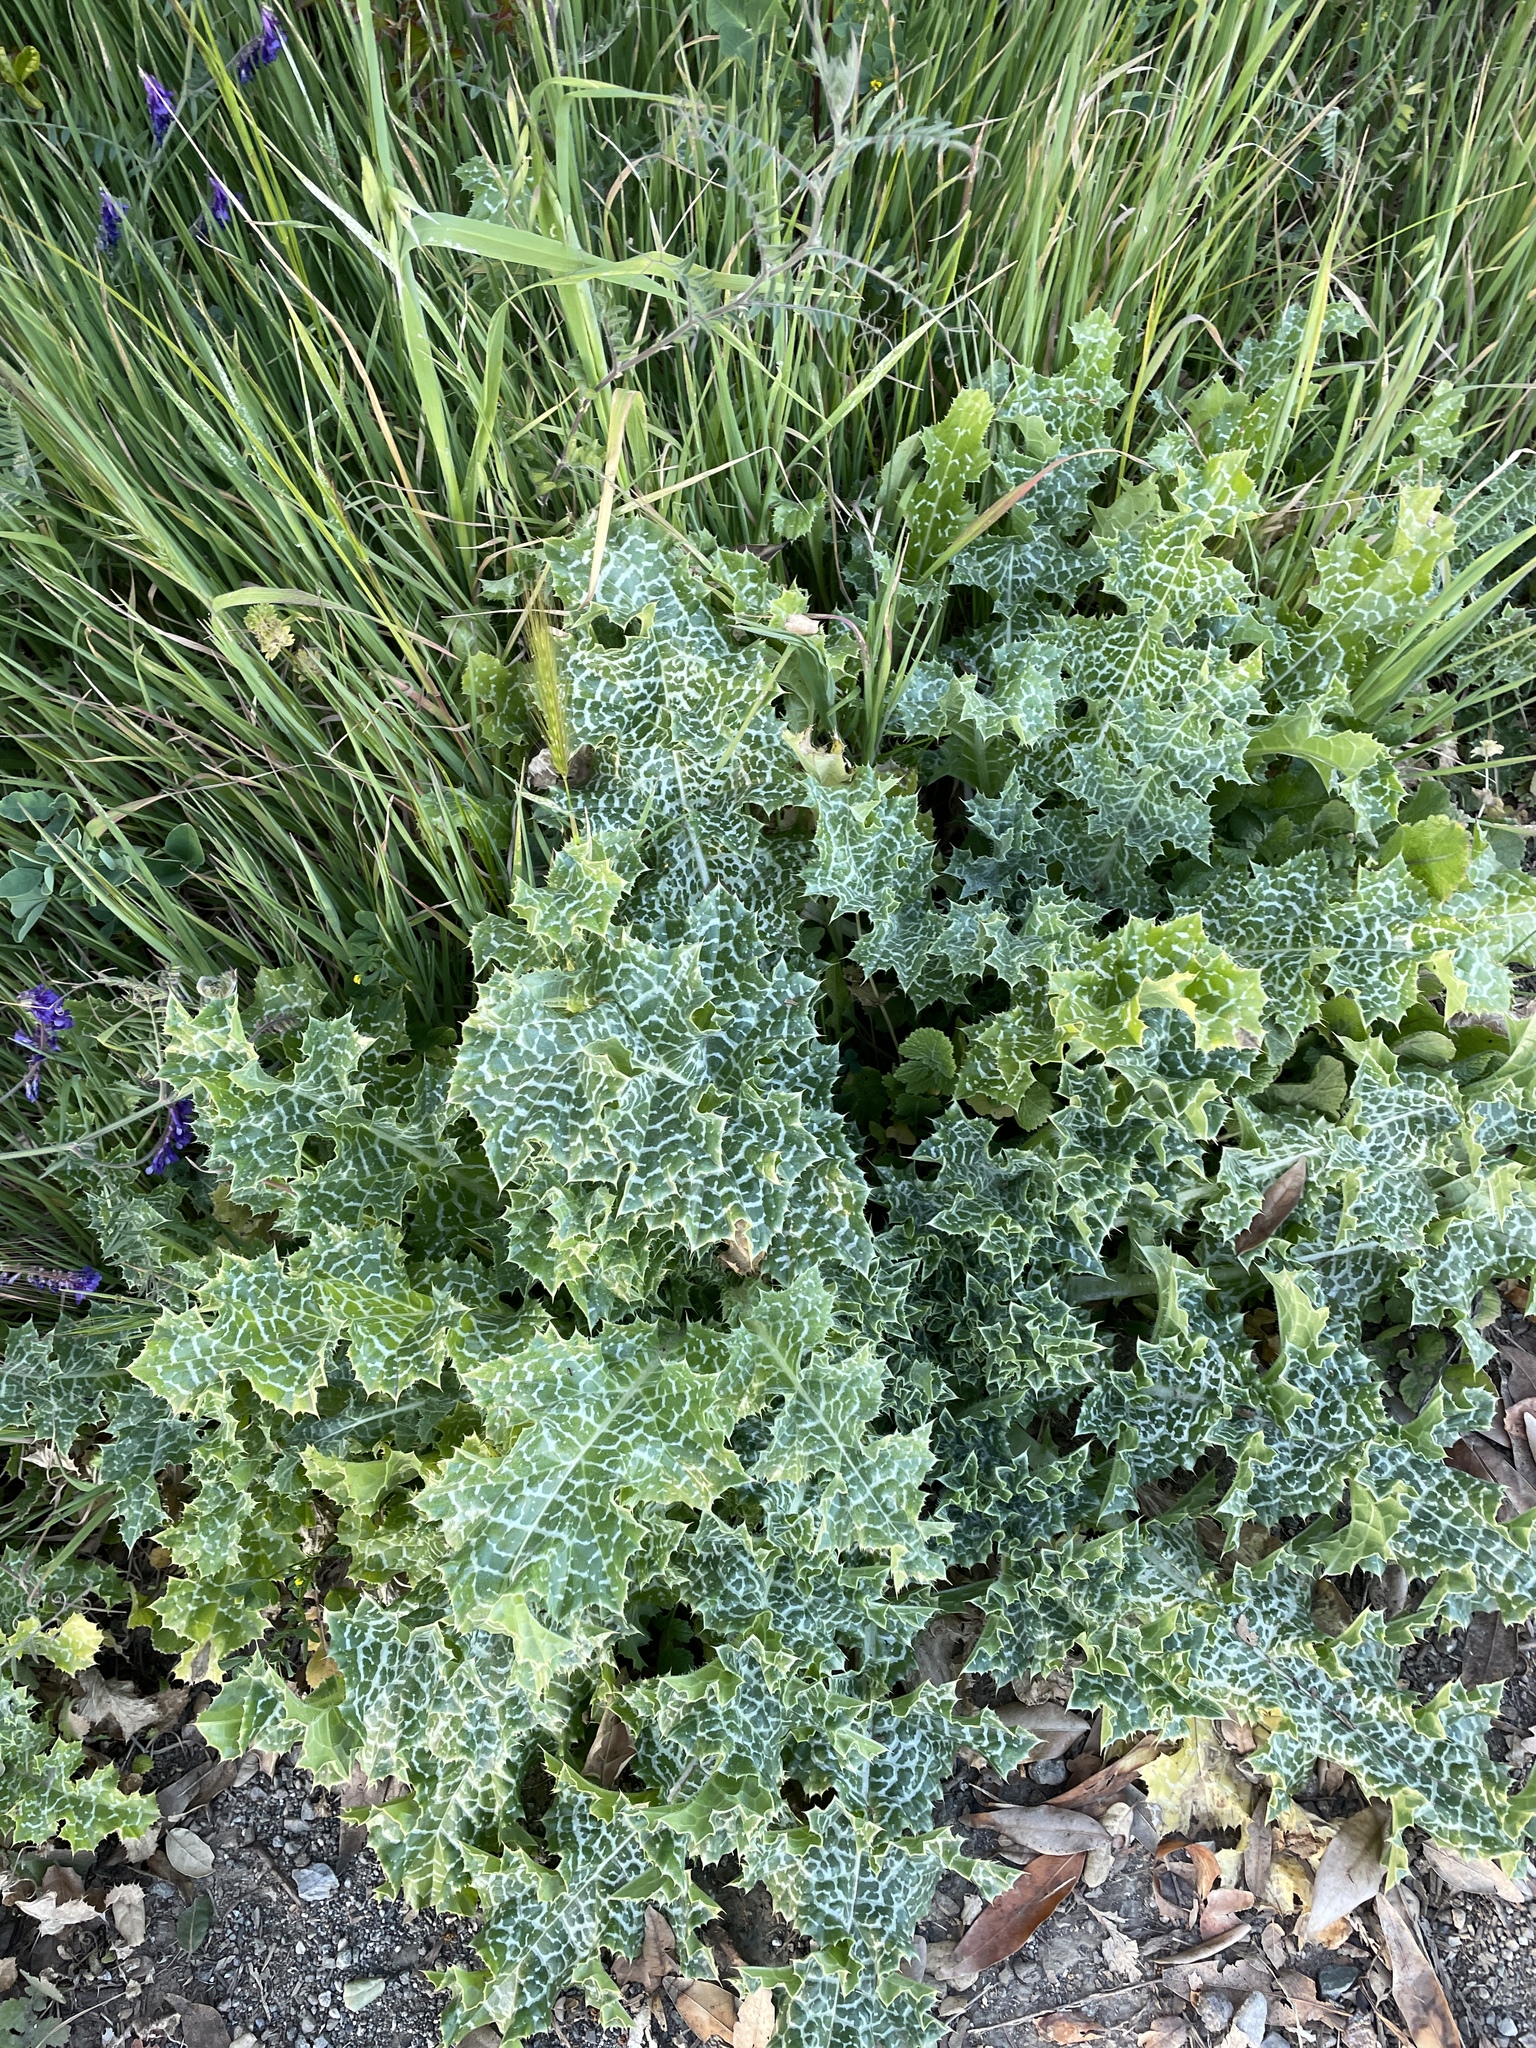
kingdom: Plantae
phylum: Tracheophyta
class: Magnoliopsida
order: Asterales
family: Asteraceae
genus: Silybum
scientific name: Silybum marianum
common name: Milk thistle
